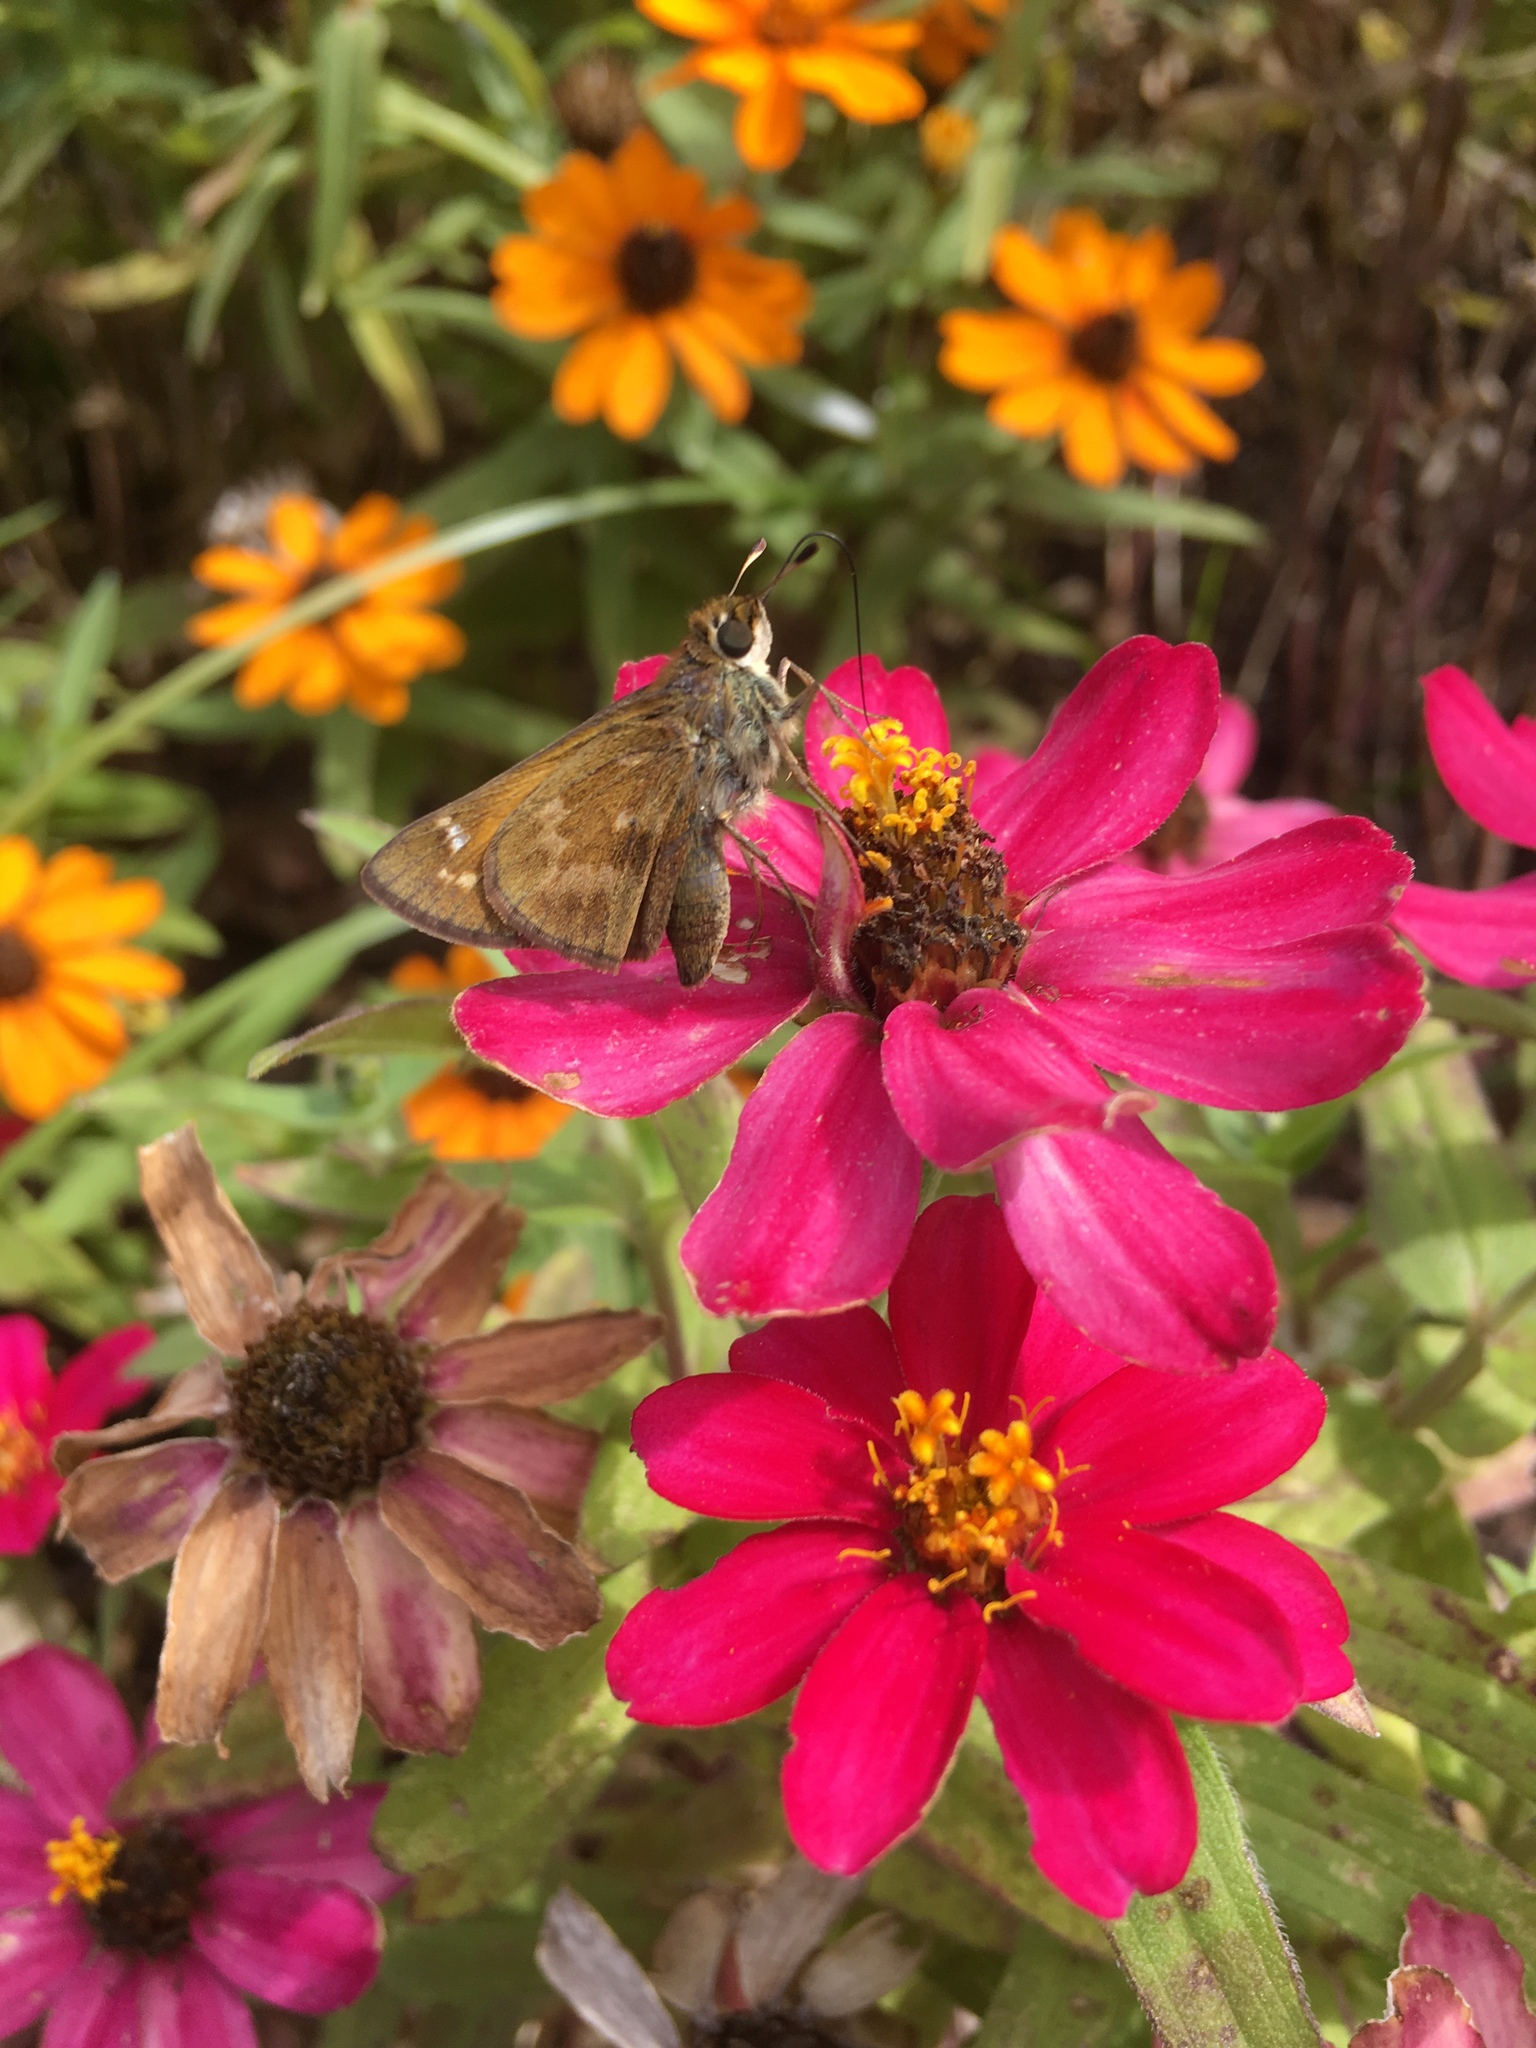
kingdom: Animalia
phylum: Arthropoda
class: Insecta
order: Lepidoptera
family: Hesperiidae
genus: Atalopedes
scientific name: Atalopedes
